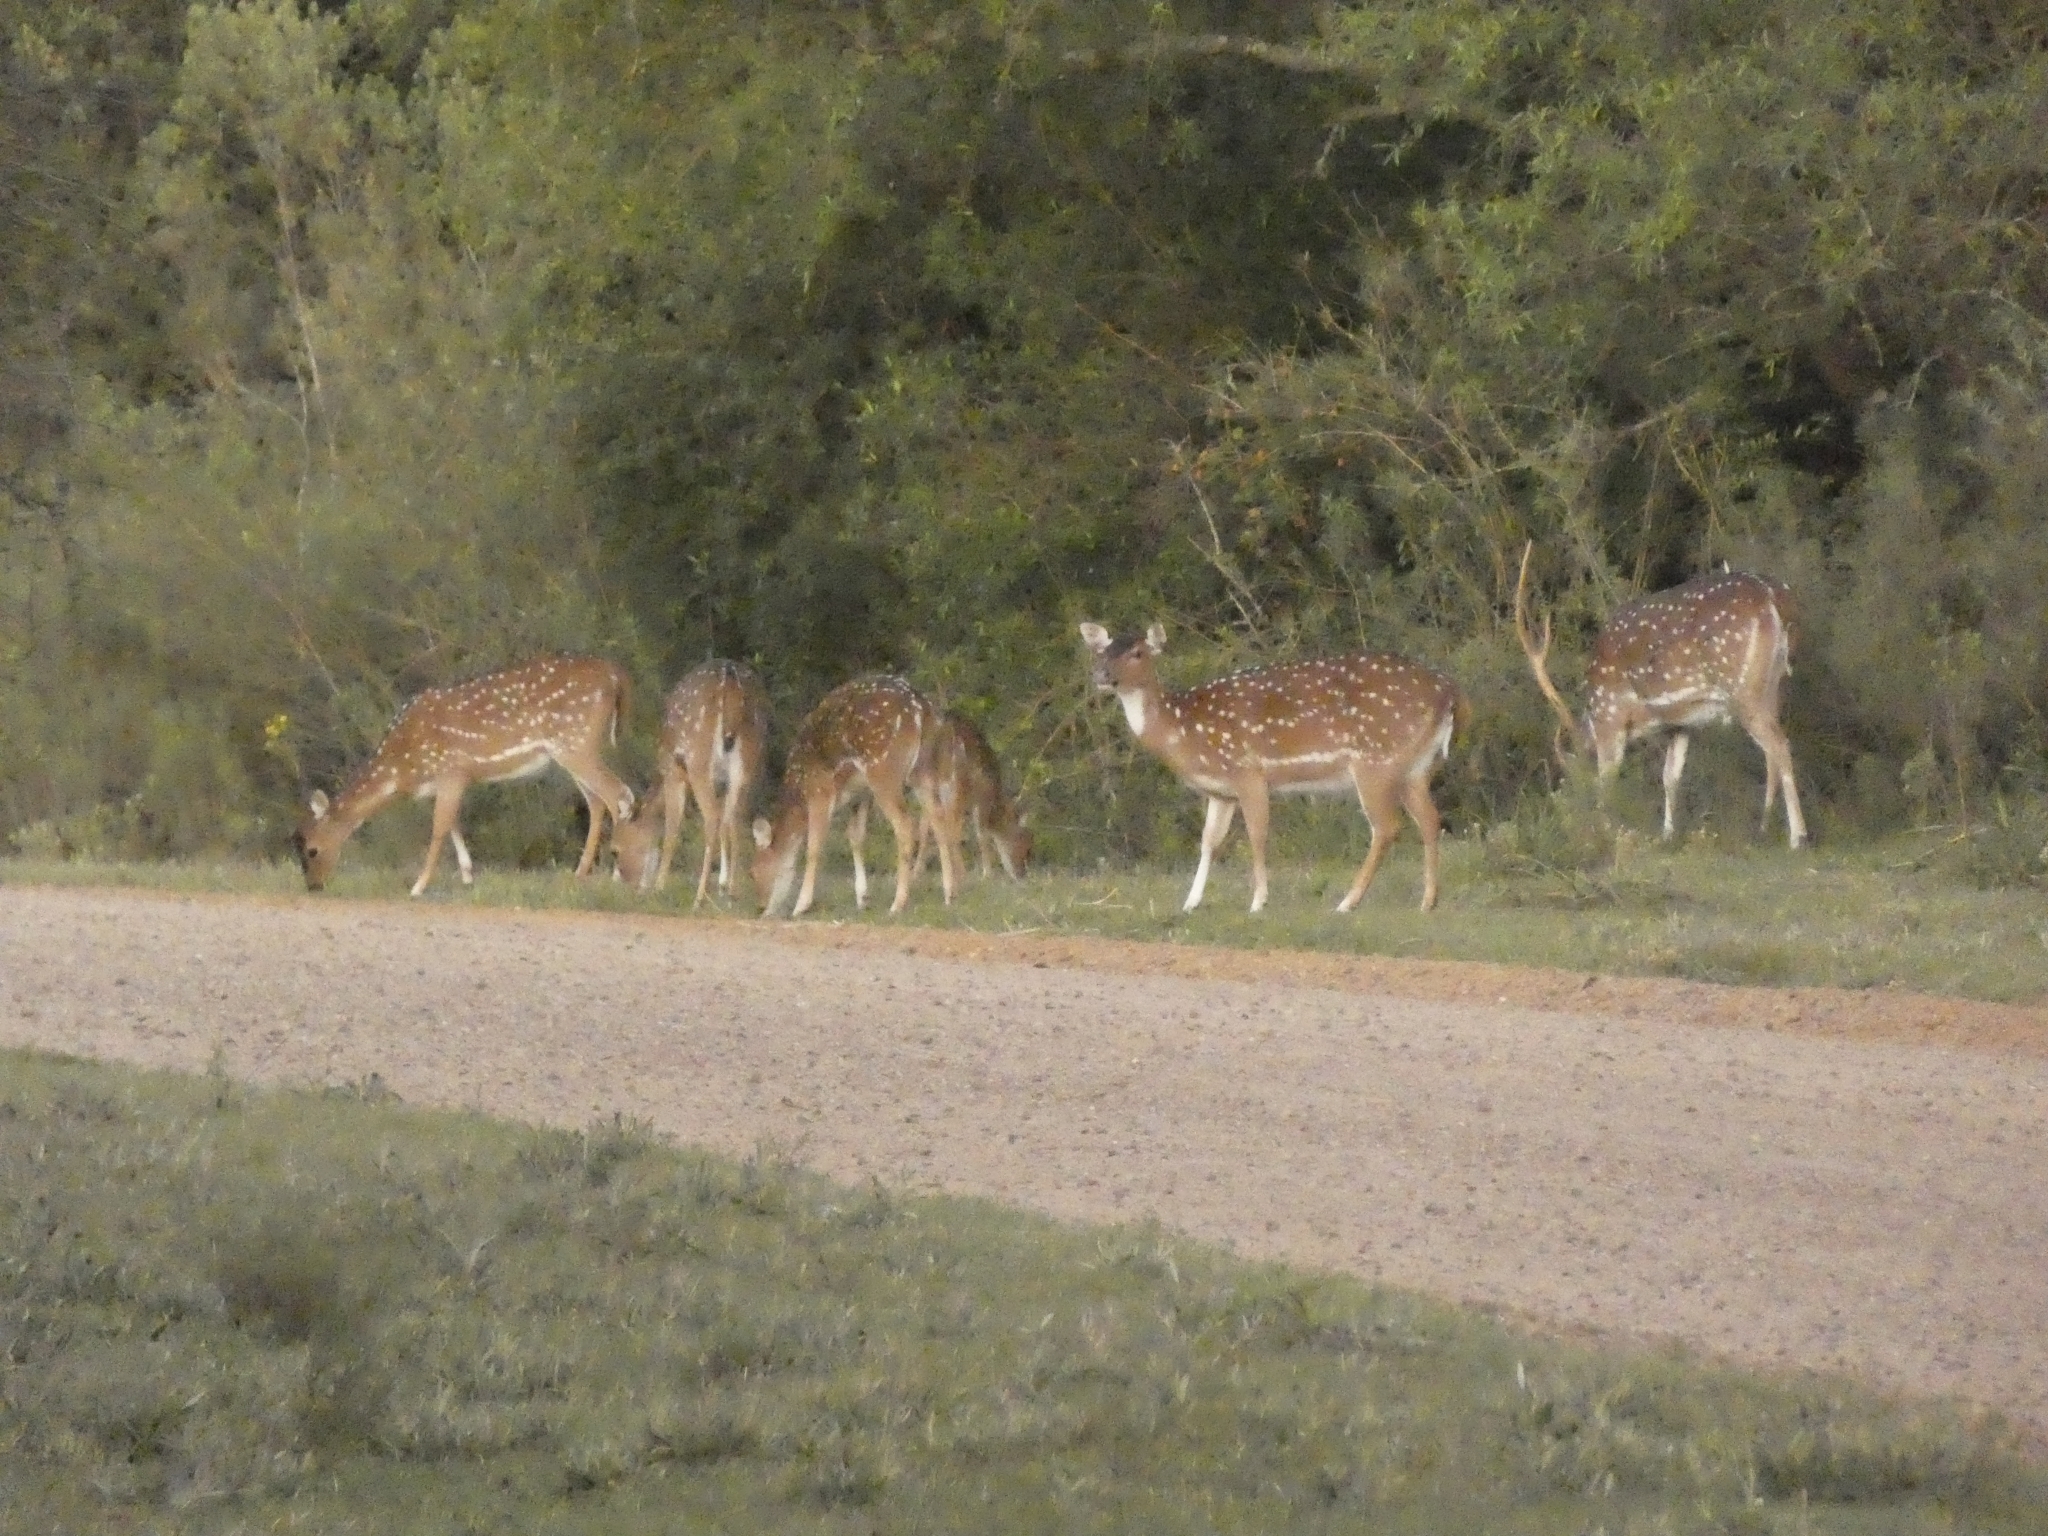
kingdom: Animalia
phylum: Chordata
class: Mammalia
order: Artiodactyla
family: Cervidae
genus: Axis
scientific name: Axis axis
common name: Chital
